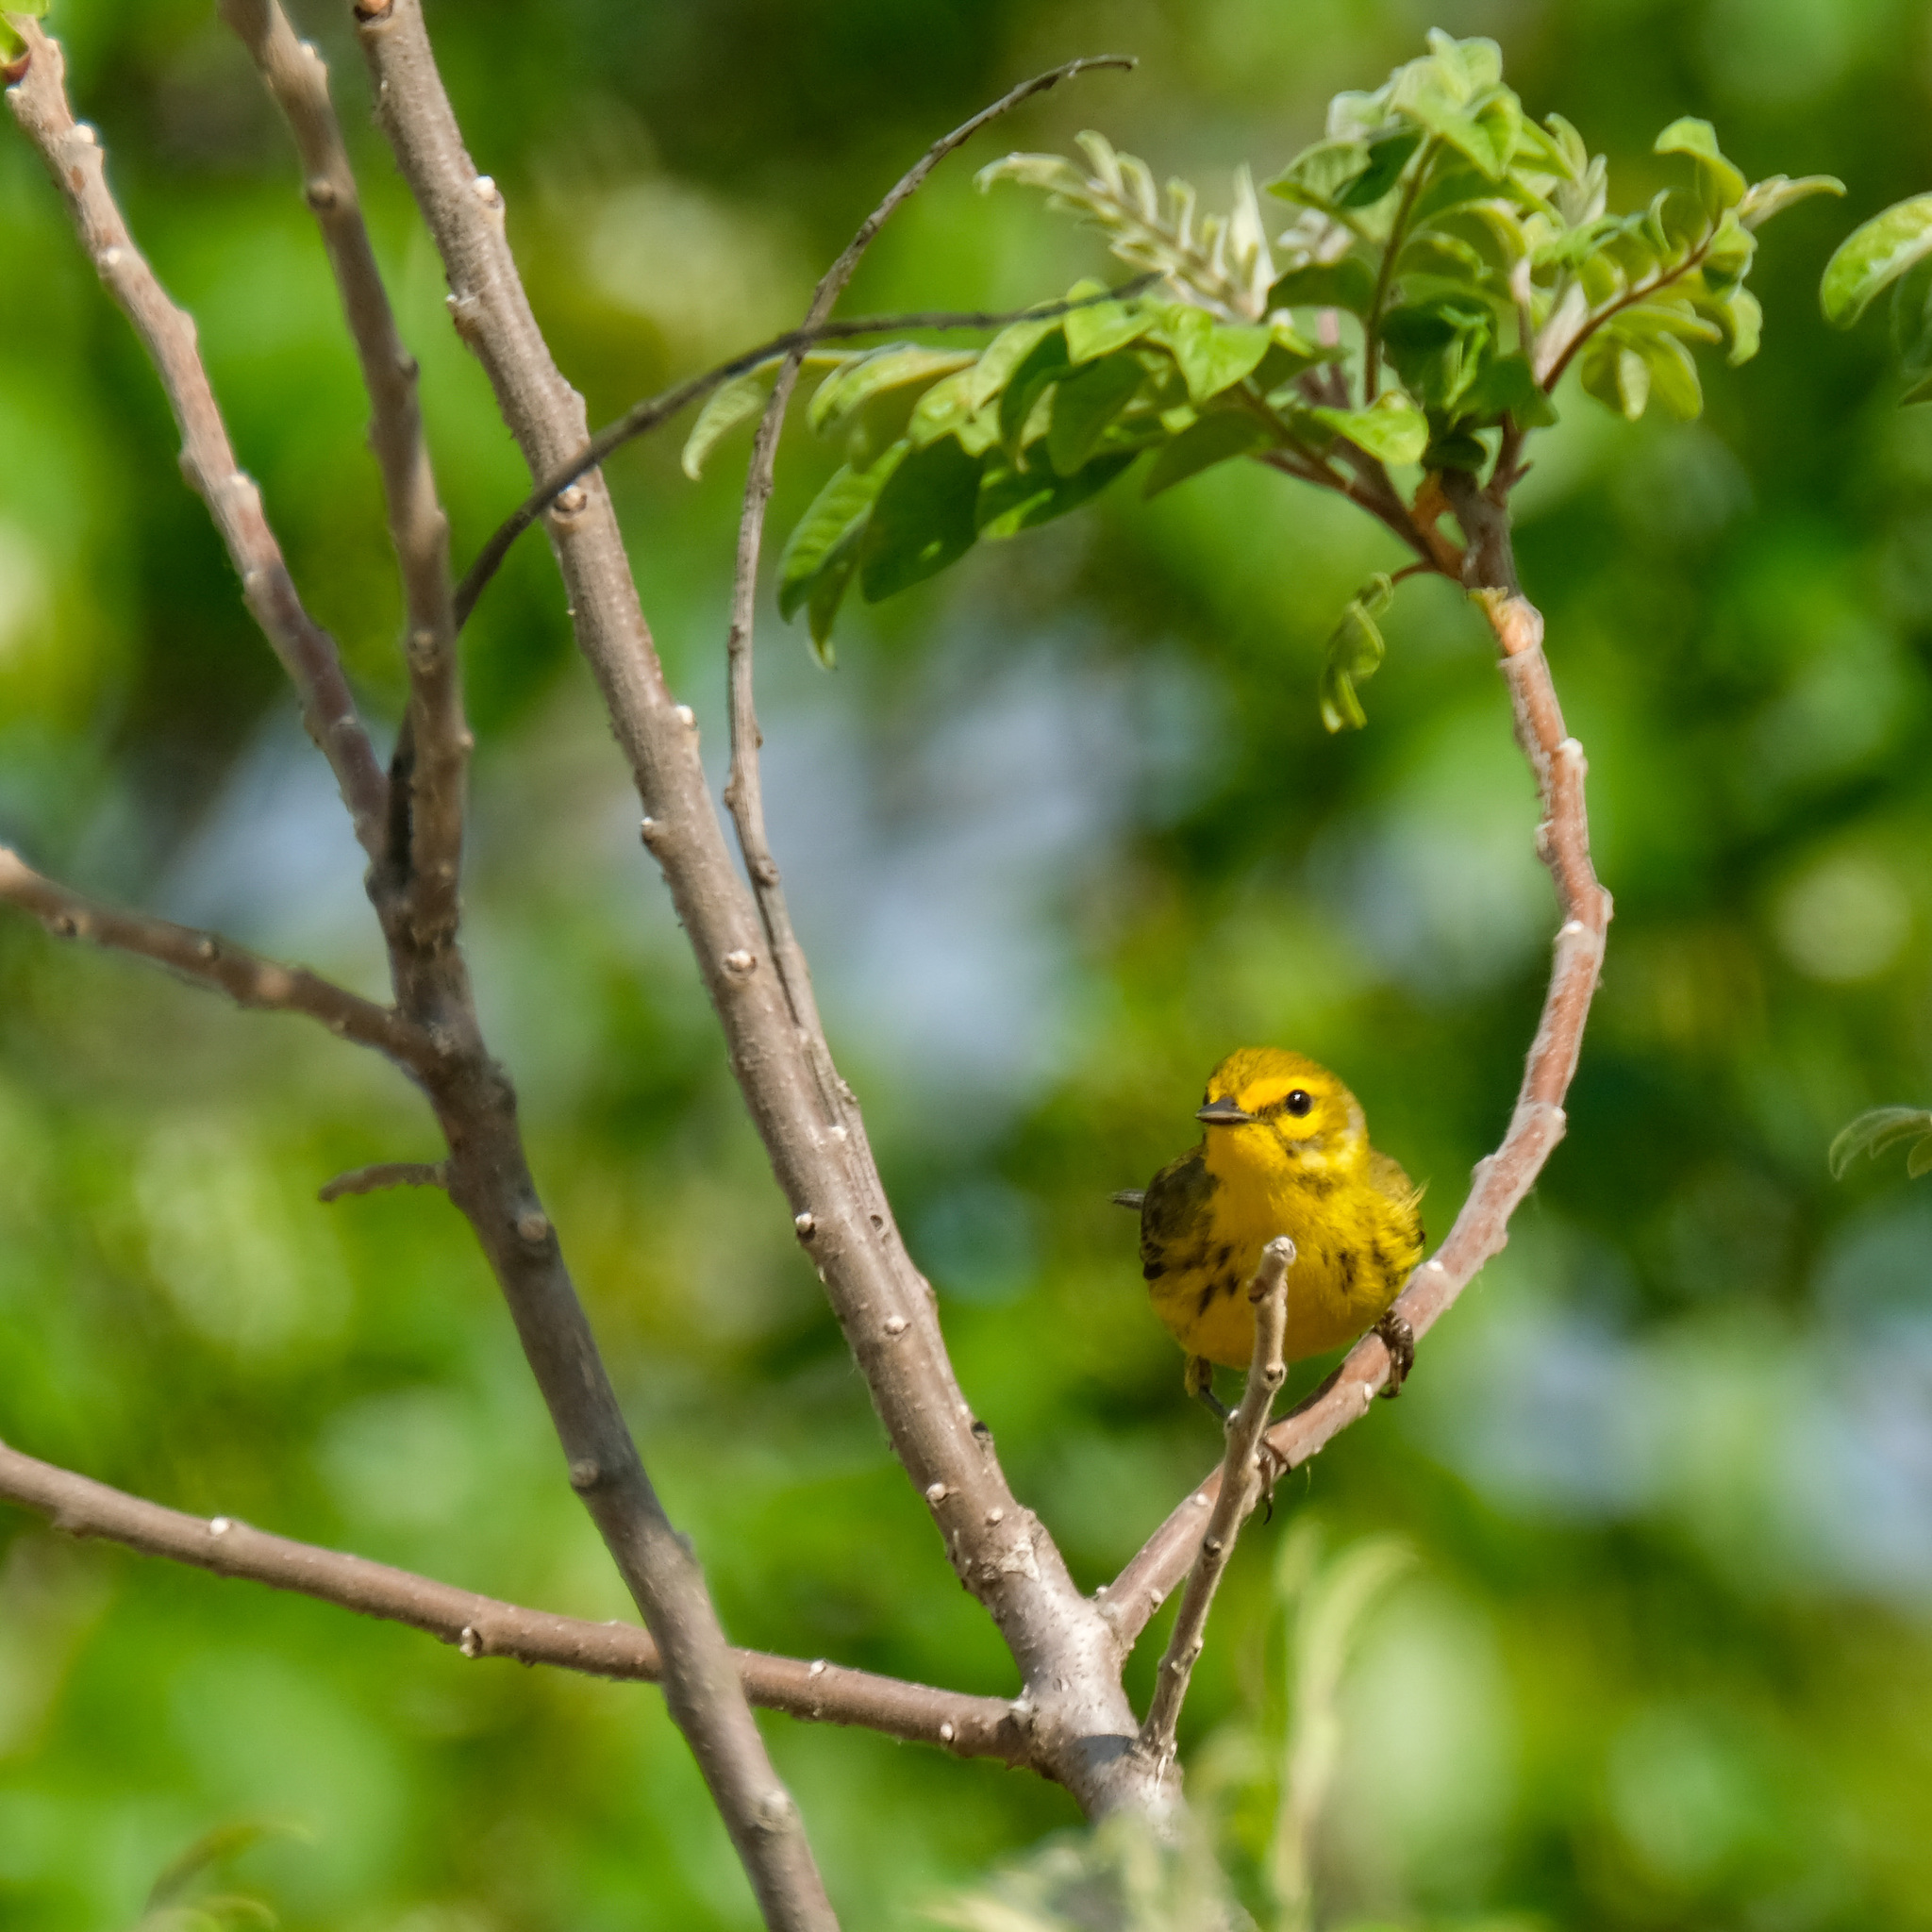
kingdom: Animalia
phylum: Chordata
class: Aves
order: Passeriformes
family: Parulidae
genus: Setophaga
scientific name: Setophaga discolor
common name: Prairie warbler
